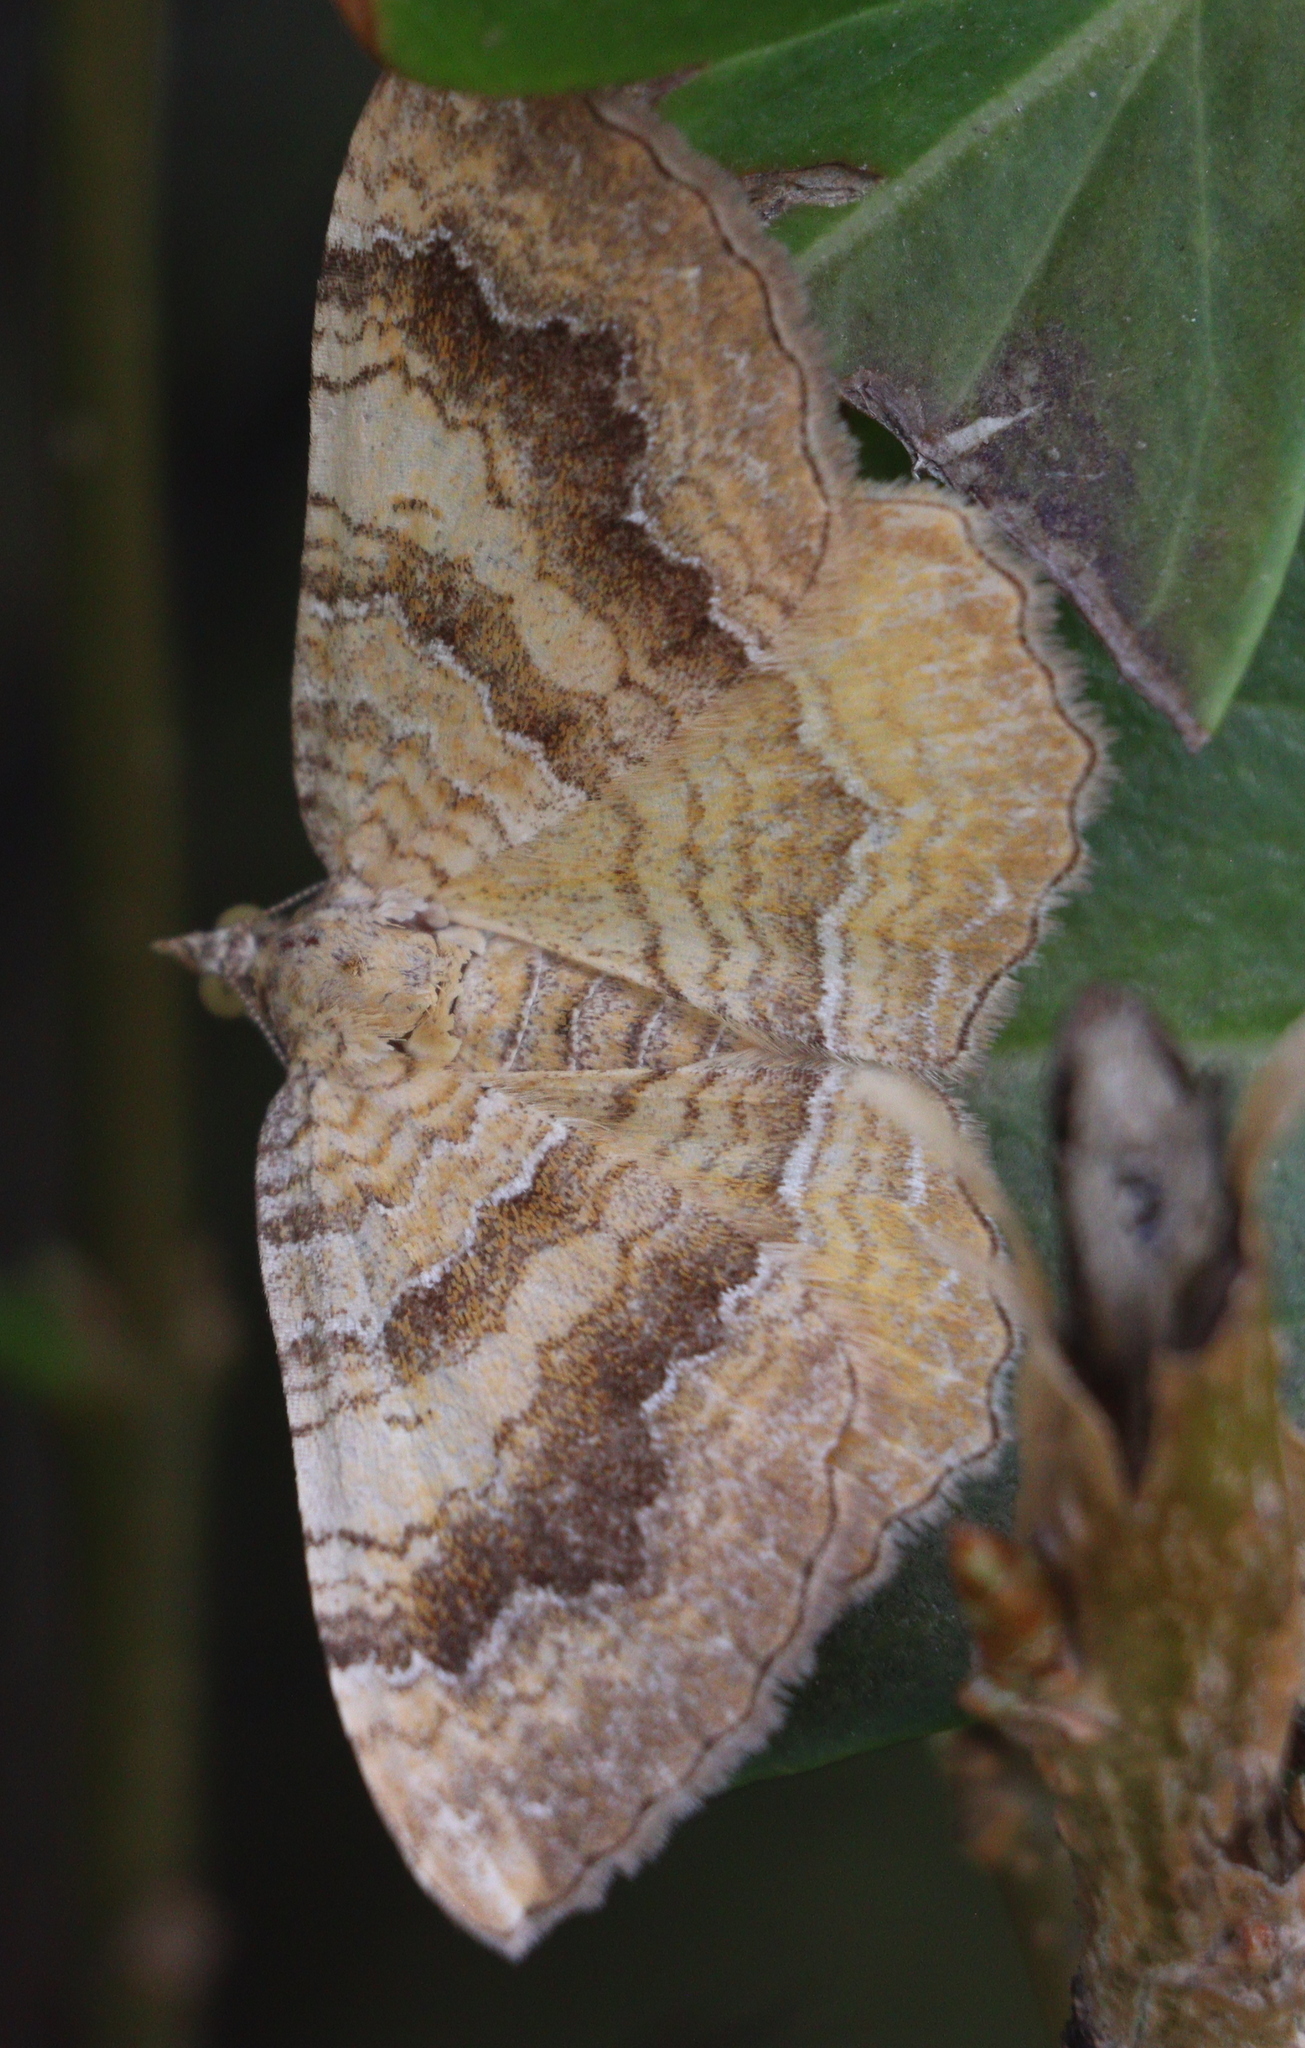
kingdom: Animalia
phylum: Arthropoda
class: Insecta
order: Lepidoptera
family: Geometridae
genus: Camptogramma
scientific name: Camptogramma bilineata
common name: Yellow shell
